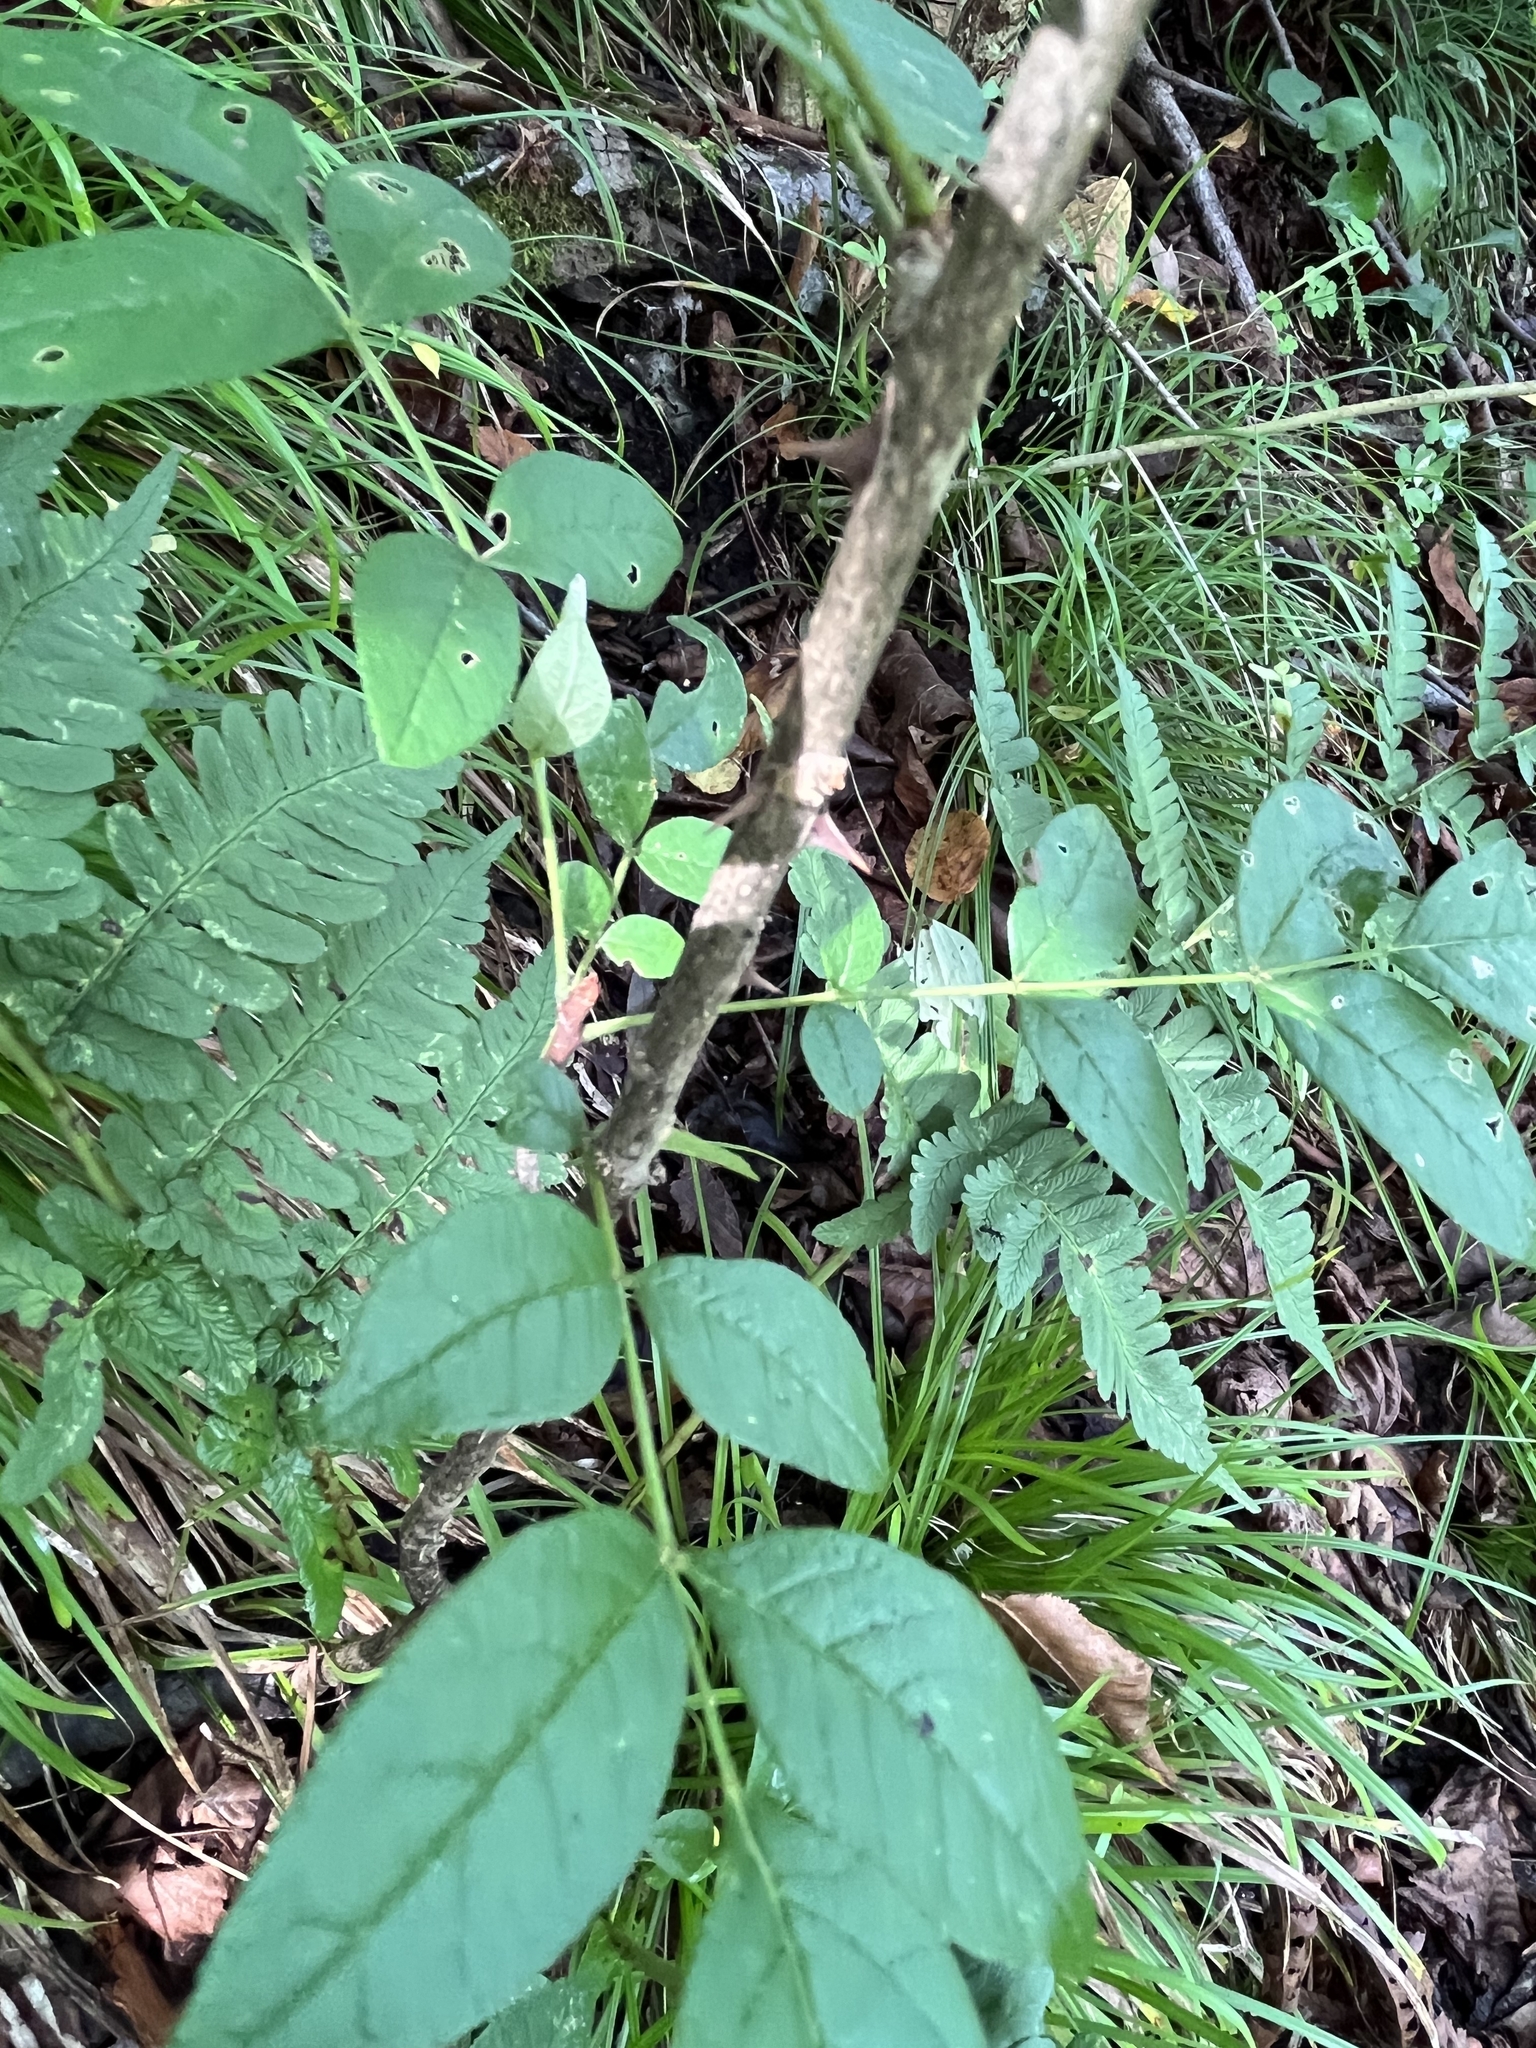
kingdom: Plantae
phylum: Tracheophyta
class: Magnoliopsida
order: Sapindales
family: Rutaceae
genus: Zanthoxylum
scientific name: Zanthoxylum americanum
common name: Northern prickly-ash
